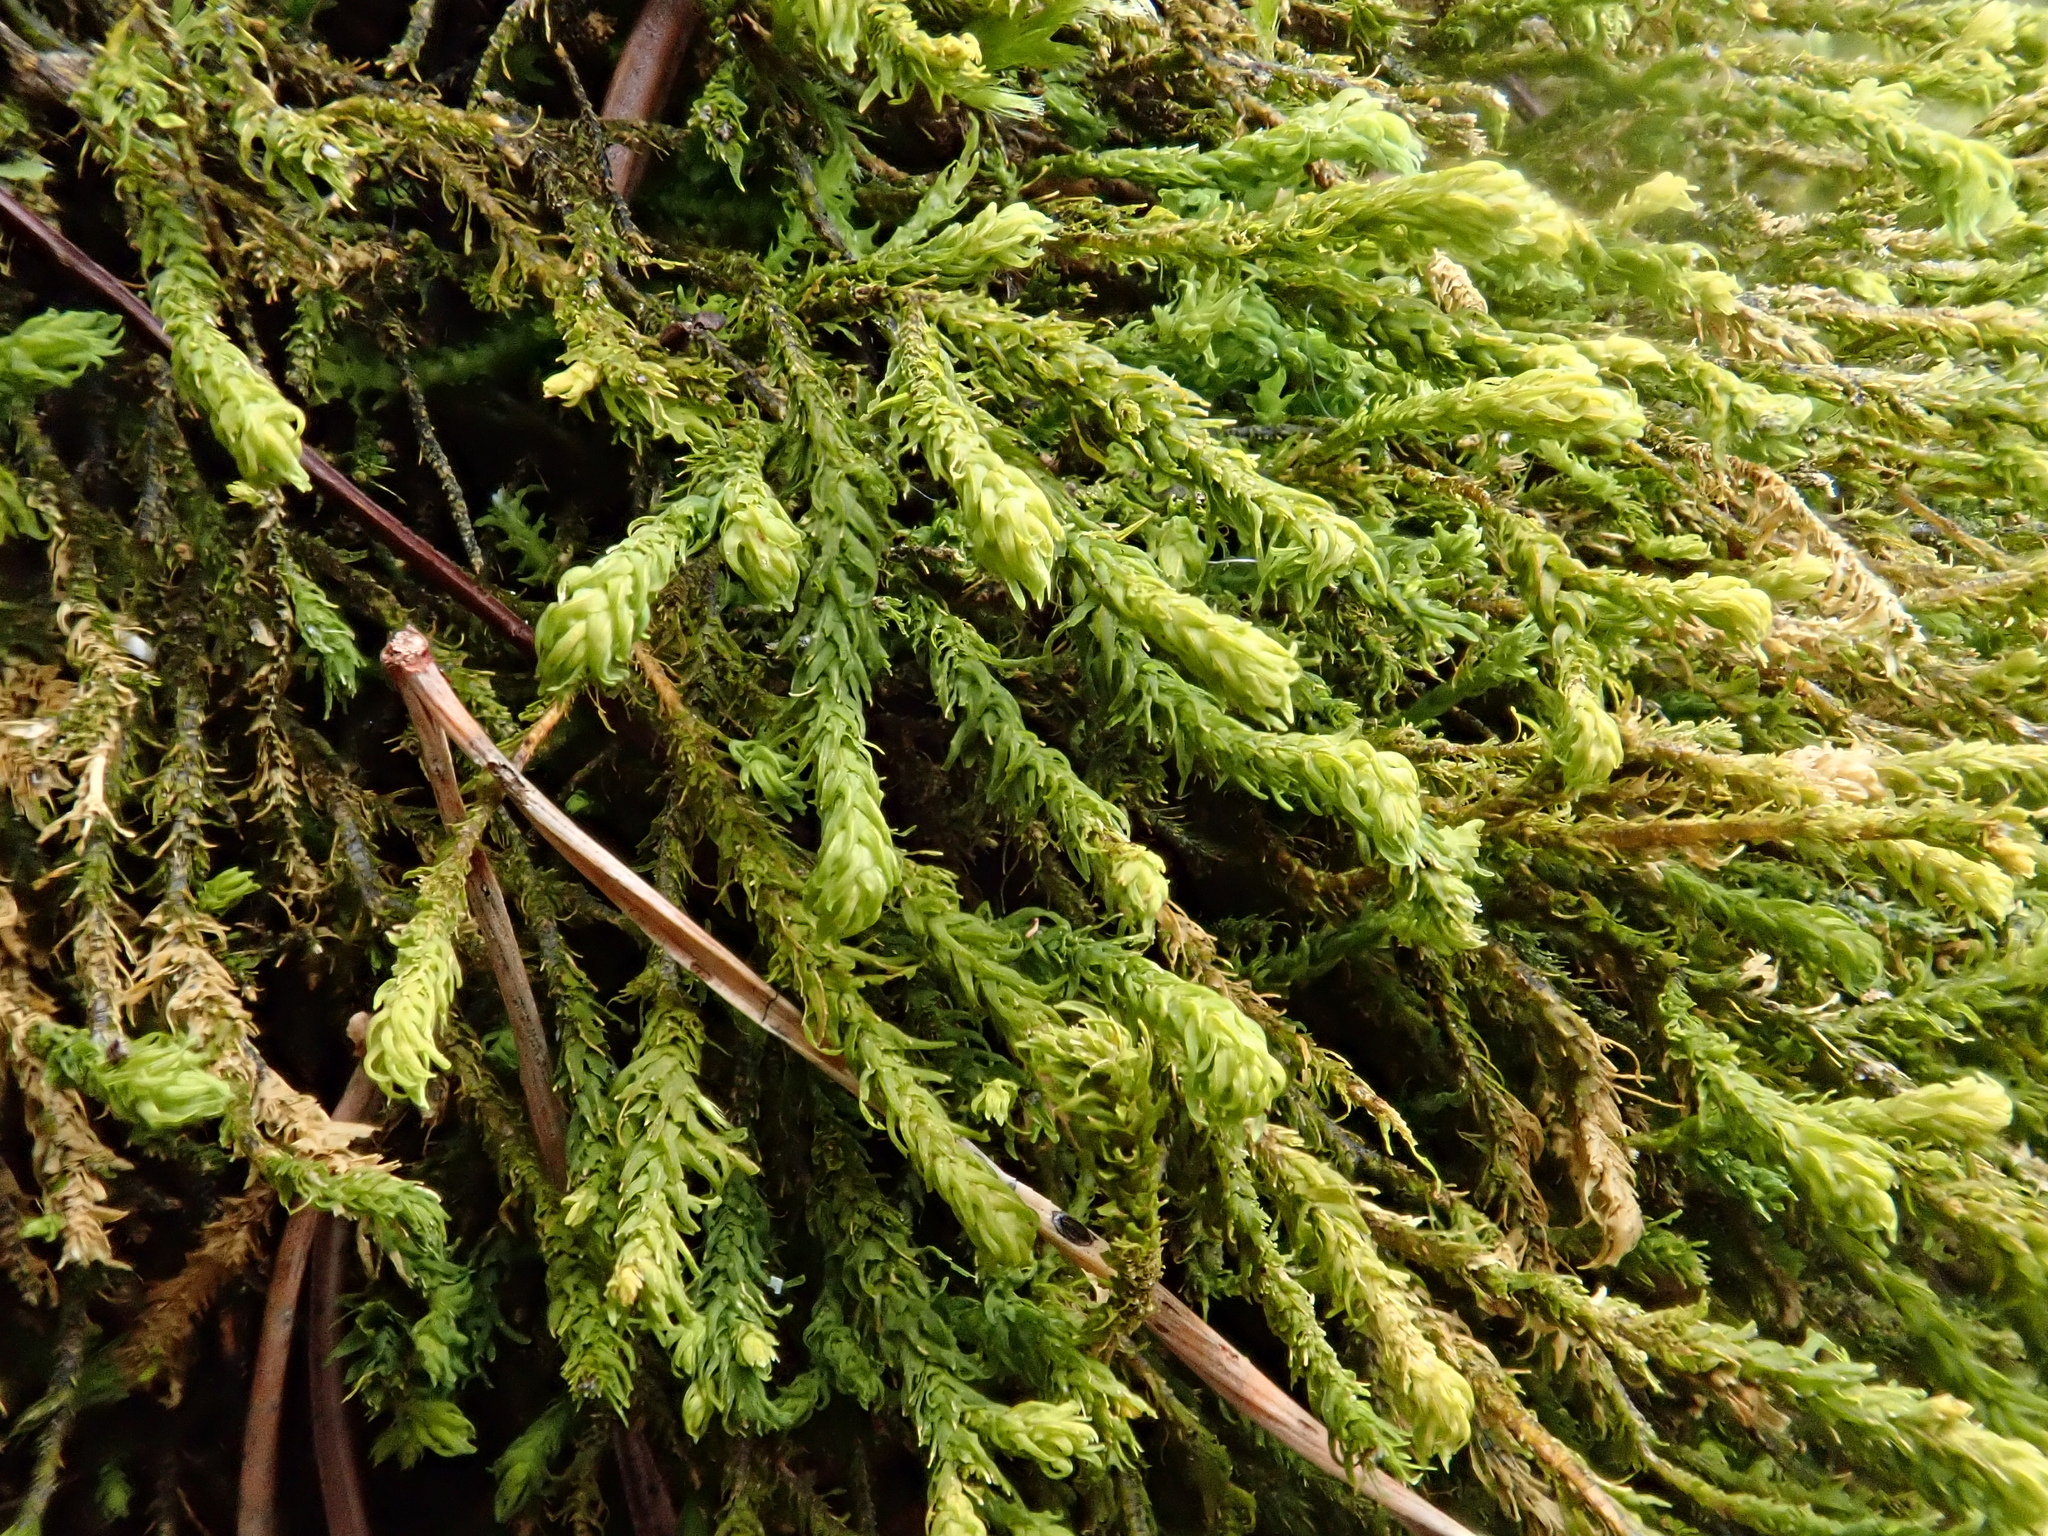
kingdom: Plantae
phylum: Bryophyta
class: Bryopsida
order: Hypnales
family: Anomodontaceae
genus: Anomodon
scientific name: Anomodon viticulosus
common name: Tall anomodon
